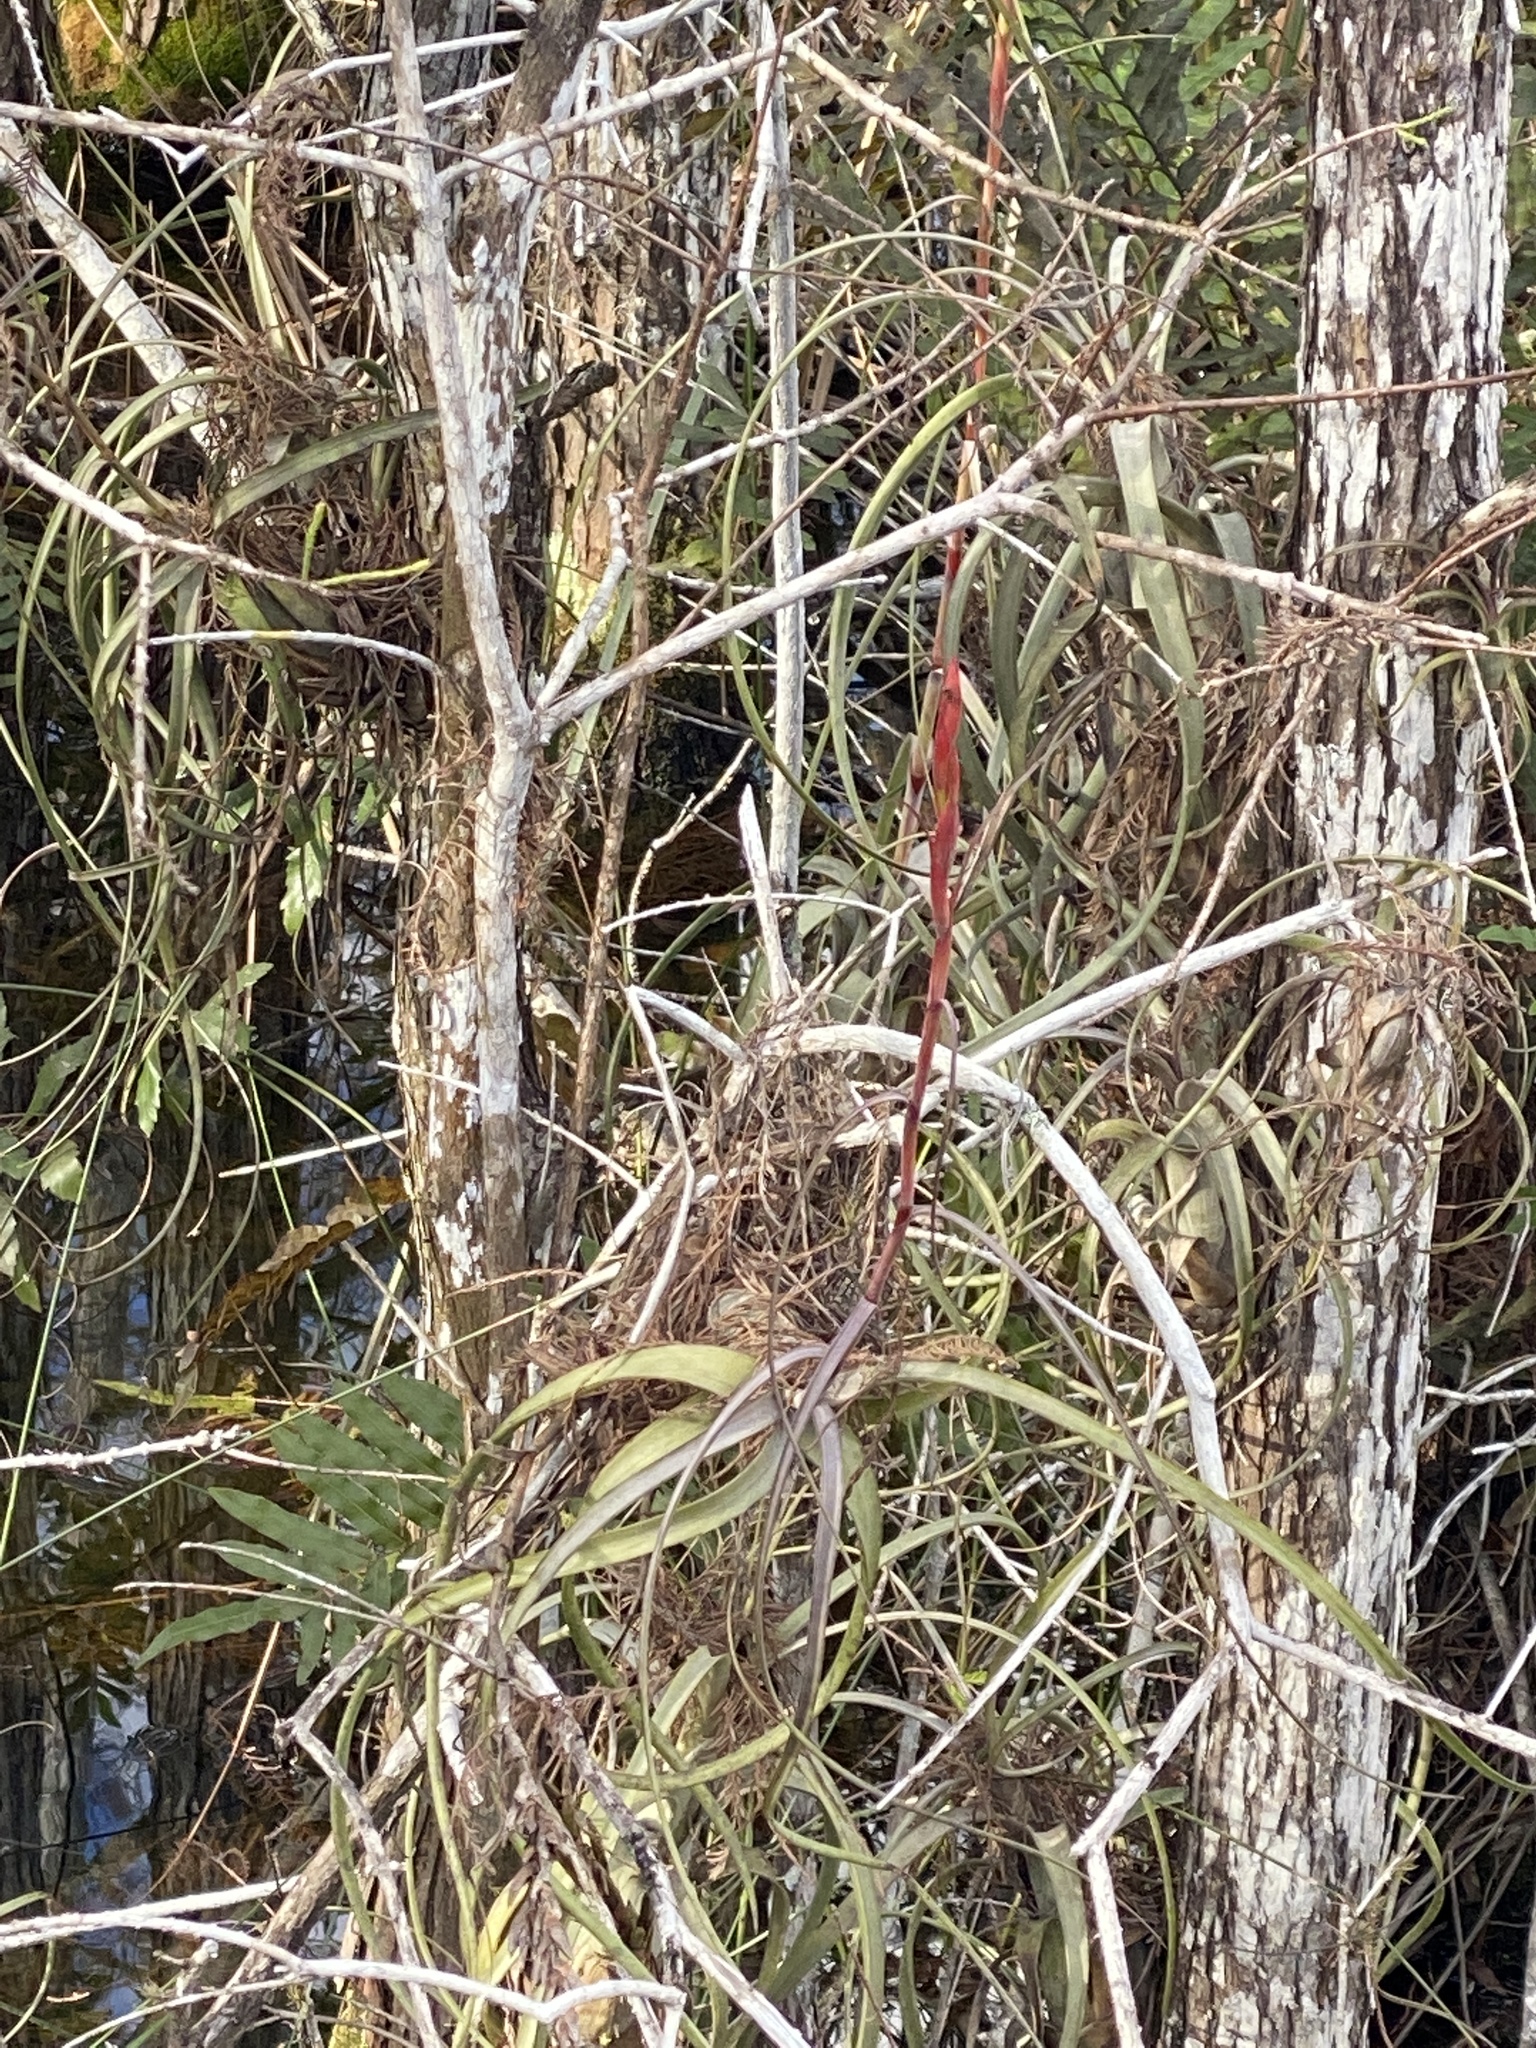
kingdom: Plantae
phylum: Tracheophyta
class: Liliopsida
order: Poales
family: Bromeliaceae
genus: Tillandsia
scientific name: Tillandsia balbisiana
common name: Northern needleleaf
